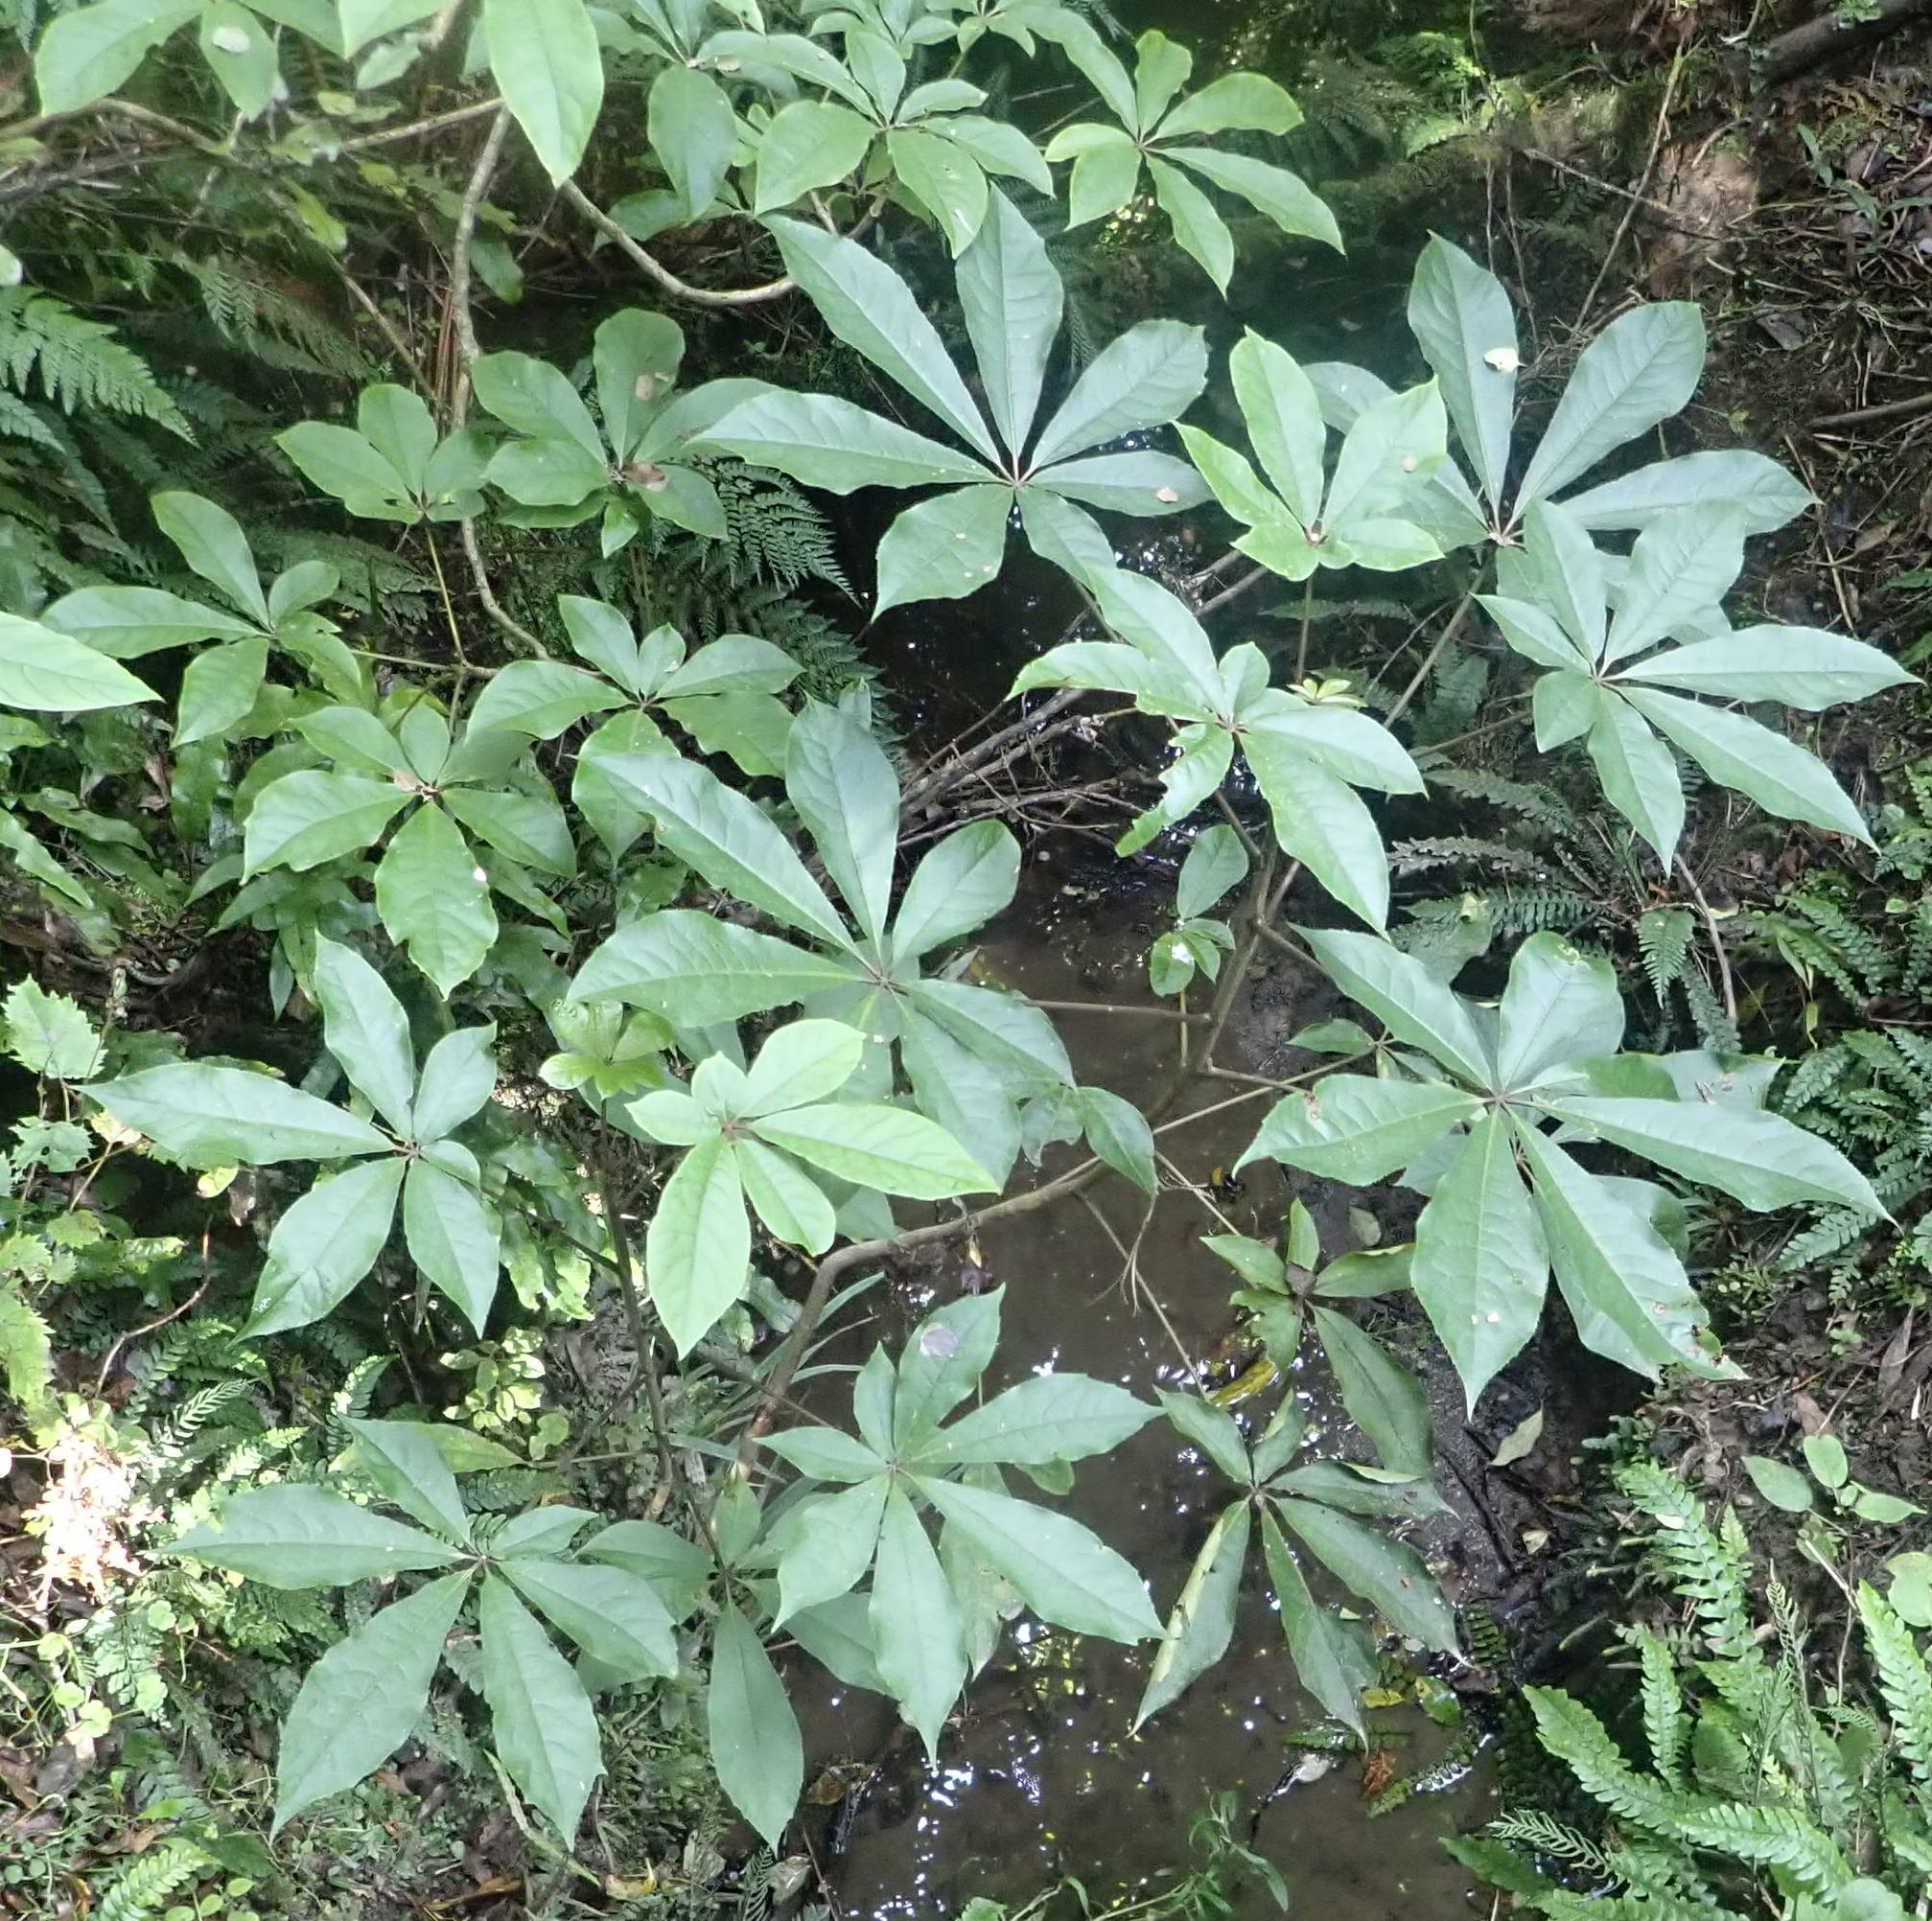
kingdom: Plantae
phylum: Tracheophyta
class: Magnoliopsida
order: Apiales
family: Araliaceae
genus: Schefflera
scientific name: Schefflera digitata
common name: Pate
